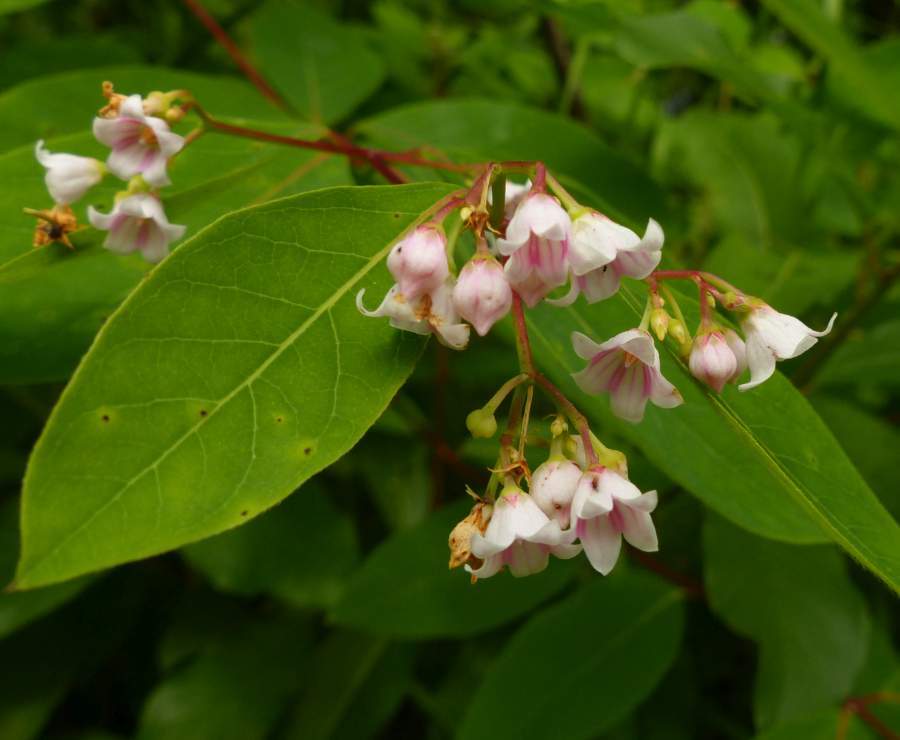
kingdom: Plantae
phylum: Tracheophyta
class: Magnoliopsida
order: Gentianales
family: Apocynaceae
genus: Apocynum
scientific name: Apocynum androsaemifolium
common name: Spreading dogbane
